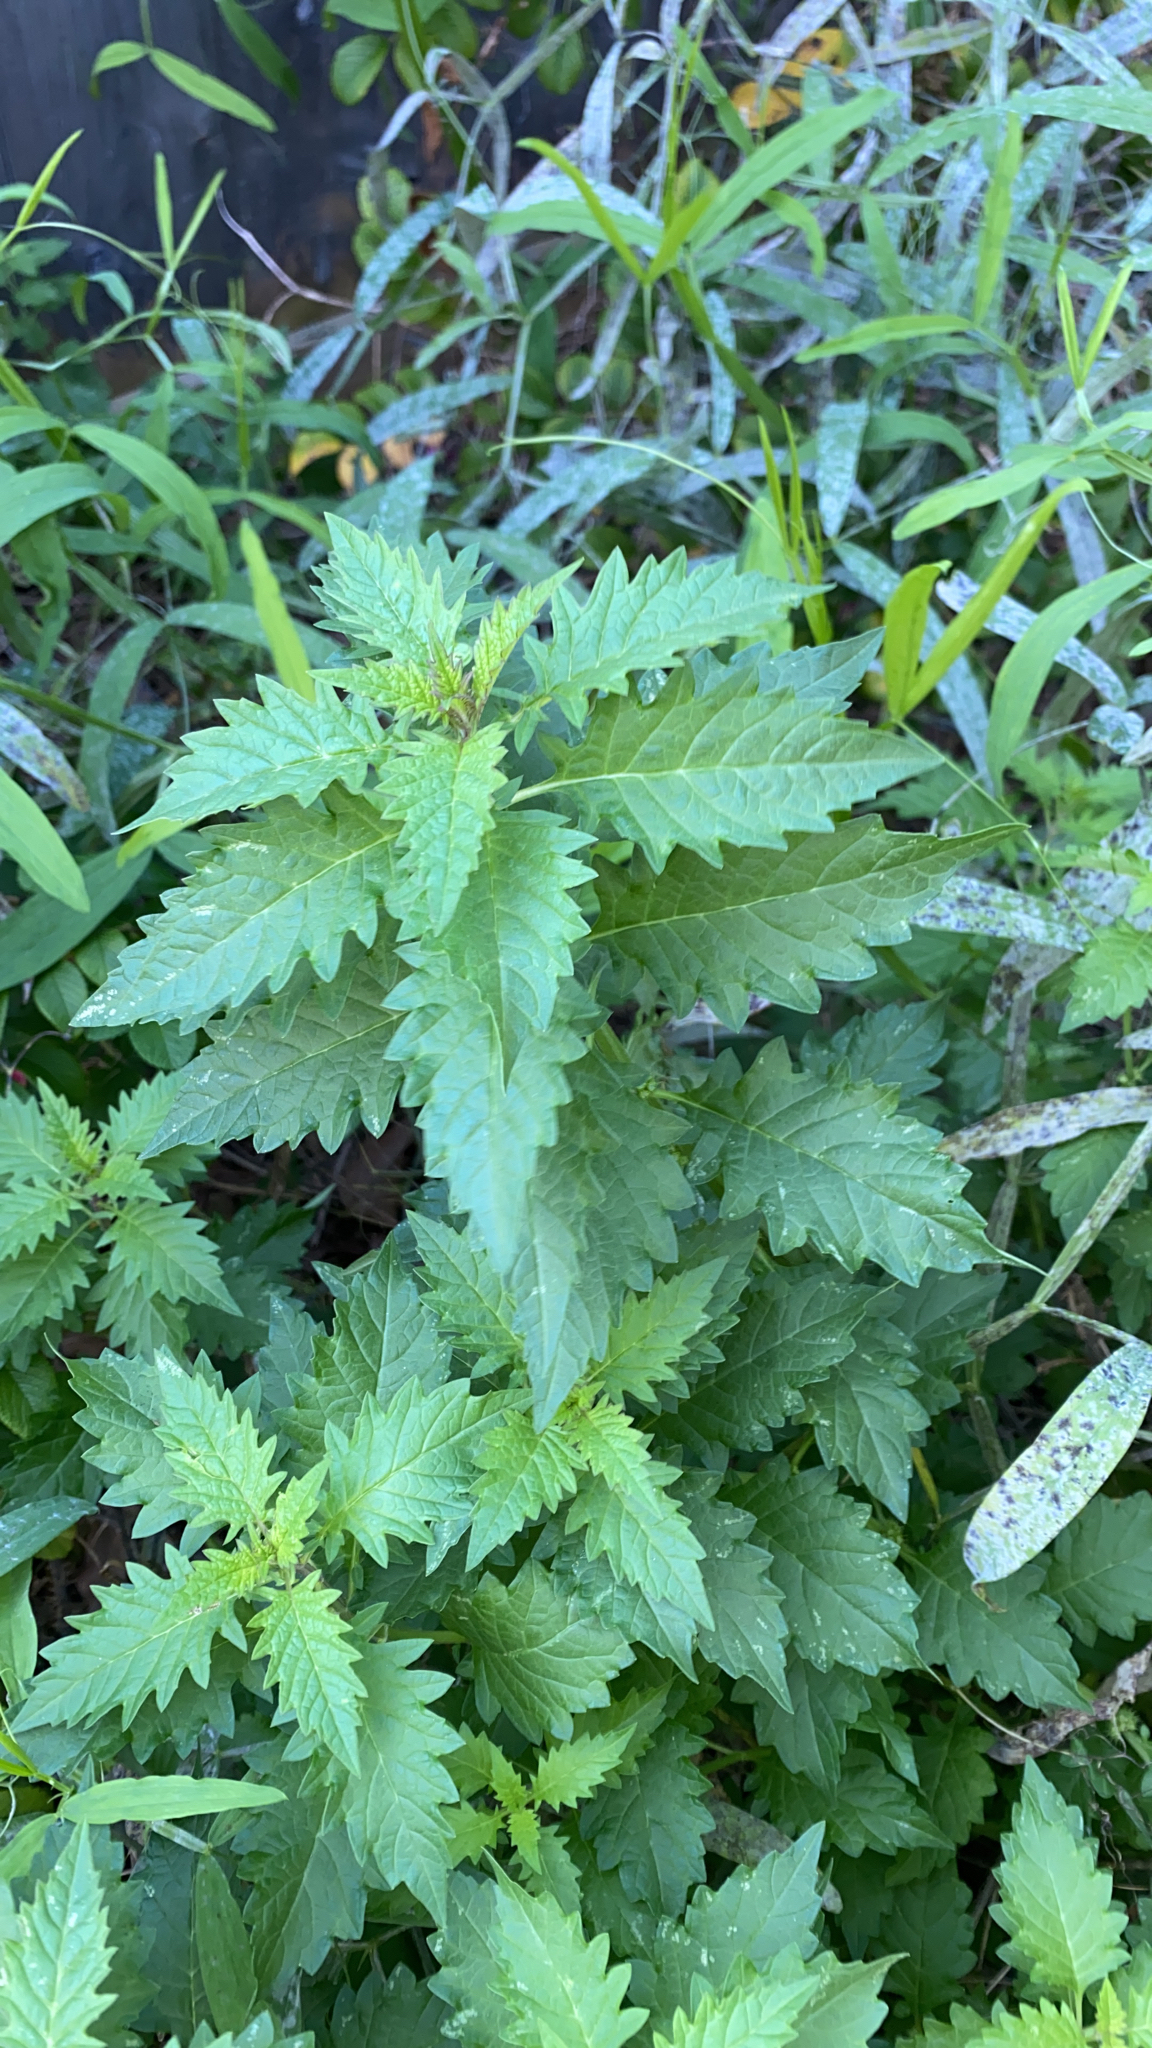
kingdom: Plantae
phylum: Tracheophyta
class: Magnoliopsida
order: Lamiales
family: Lamiaceae
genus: Lycopus
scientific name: Lycopus europaeus
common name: European bugleweed
